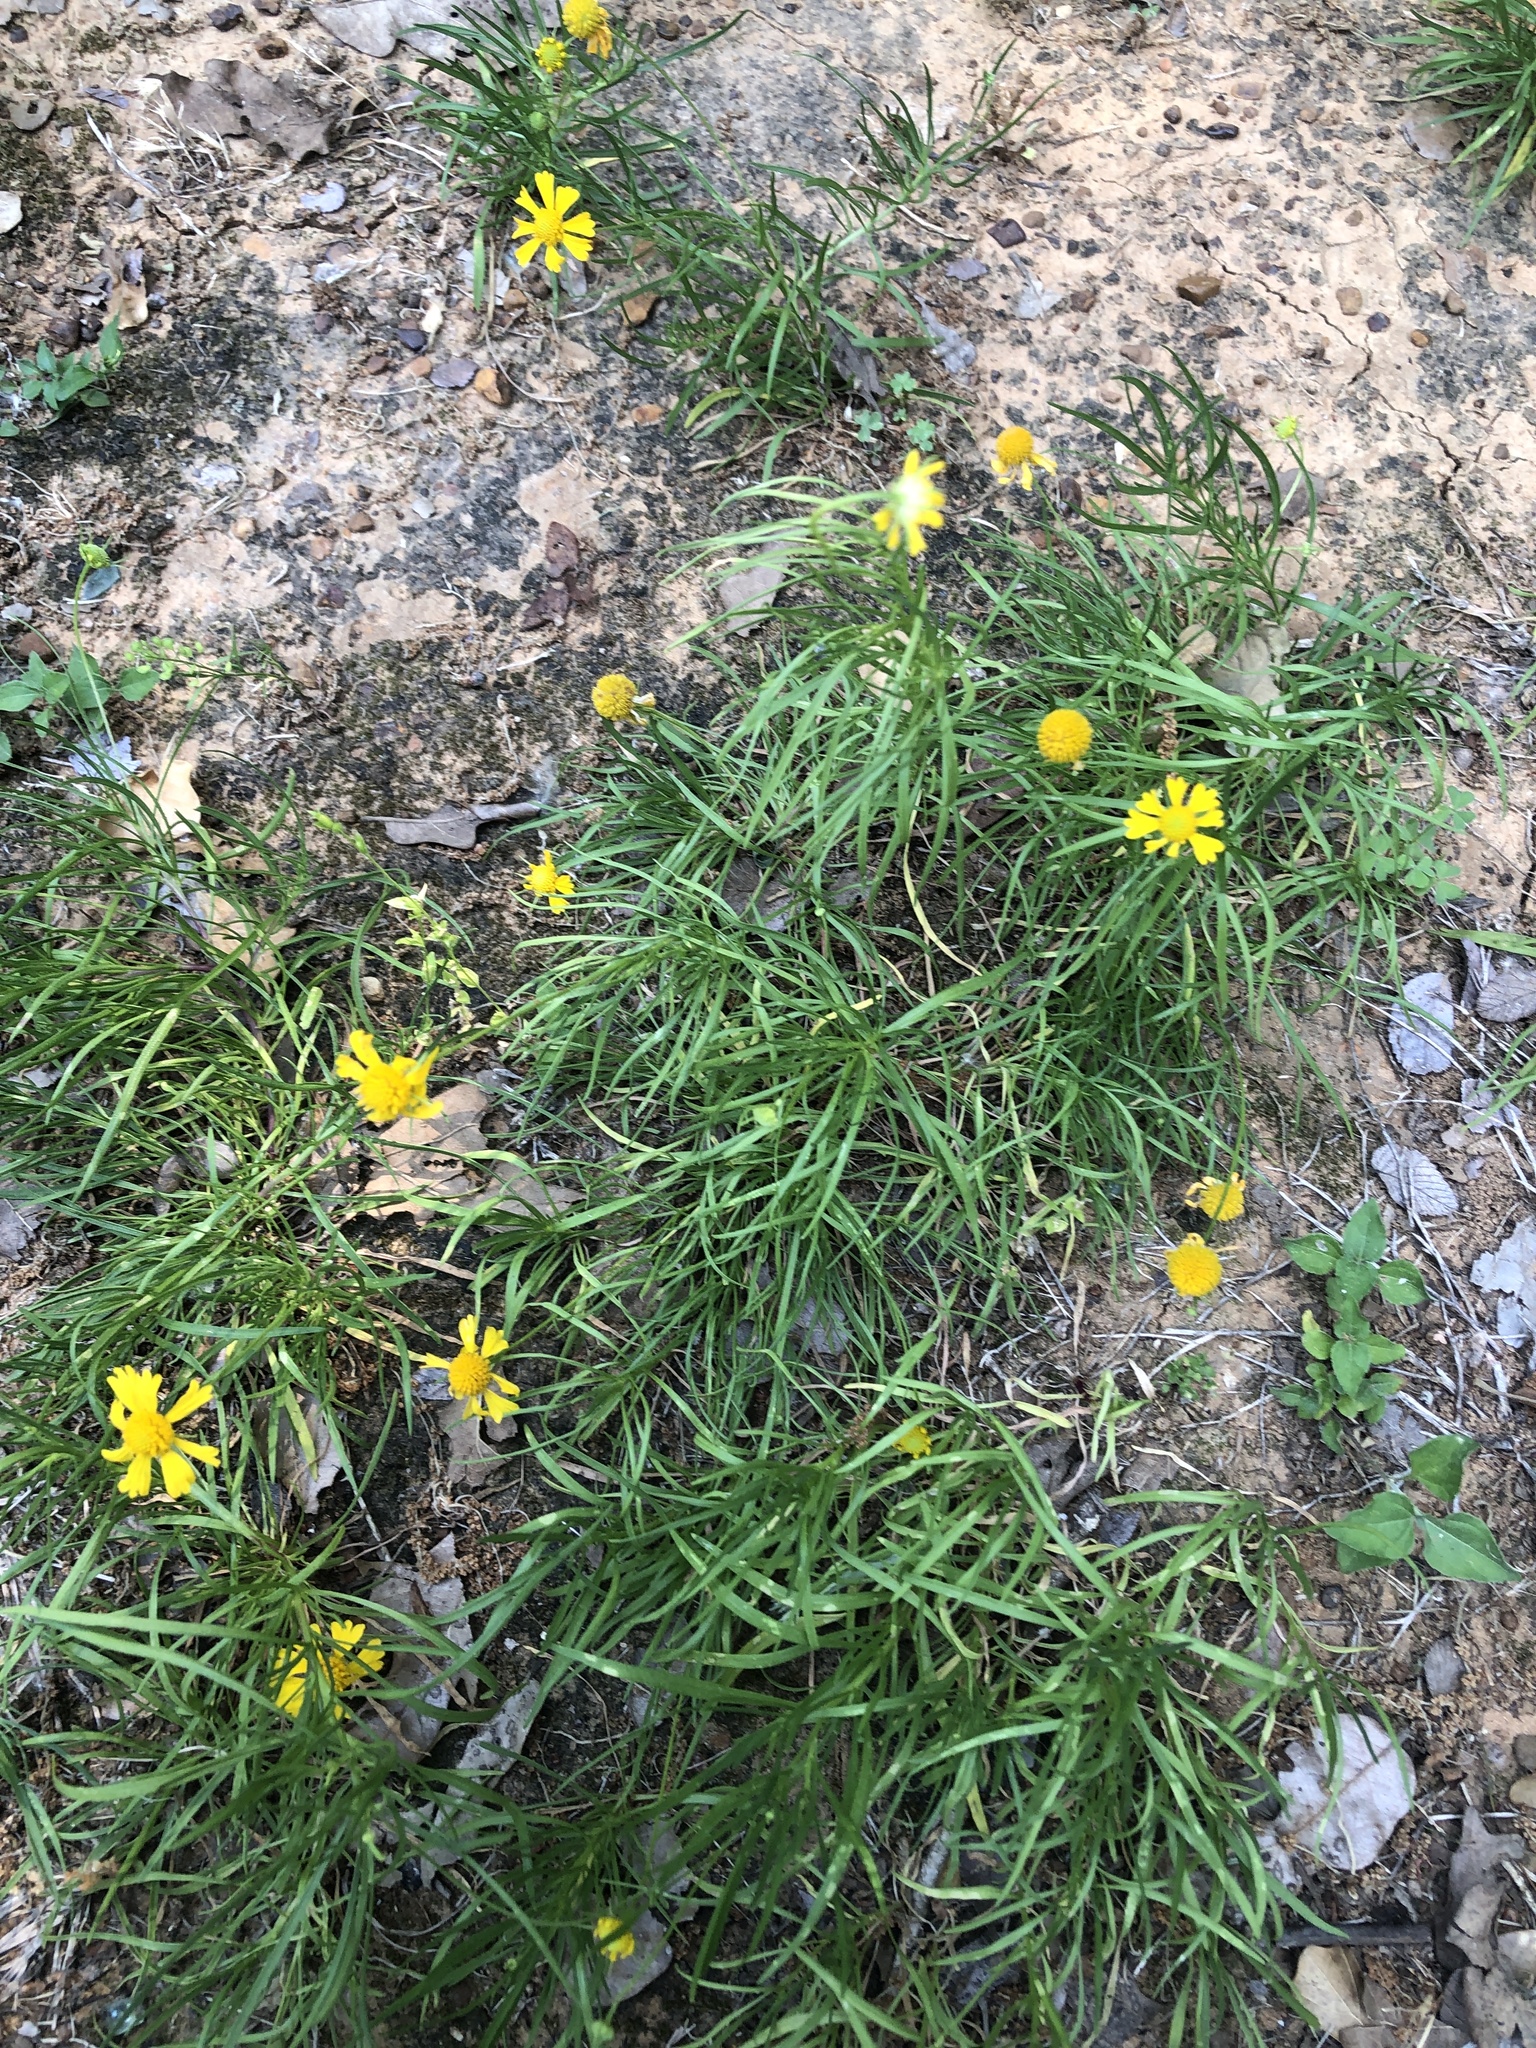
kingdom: Plantae
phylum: Tracheophyta
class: Magnoliopsida
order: Asterales
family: Asteraceae
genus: Helenium
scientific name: Helenium amarum
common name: Bitter sneezeweed
